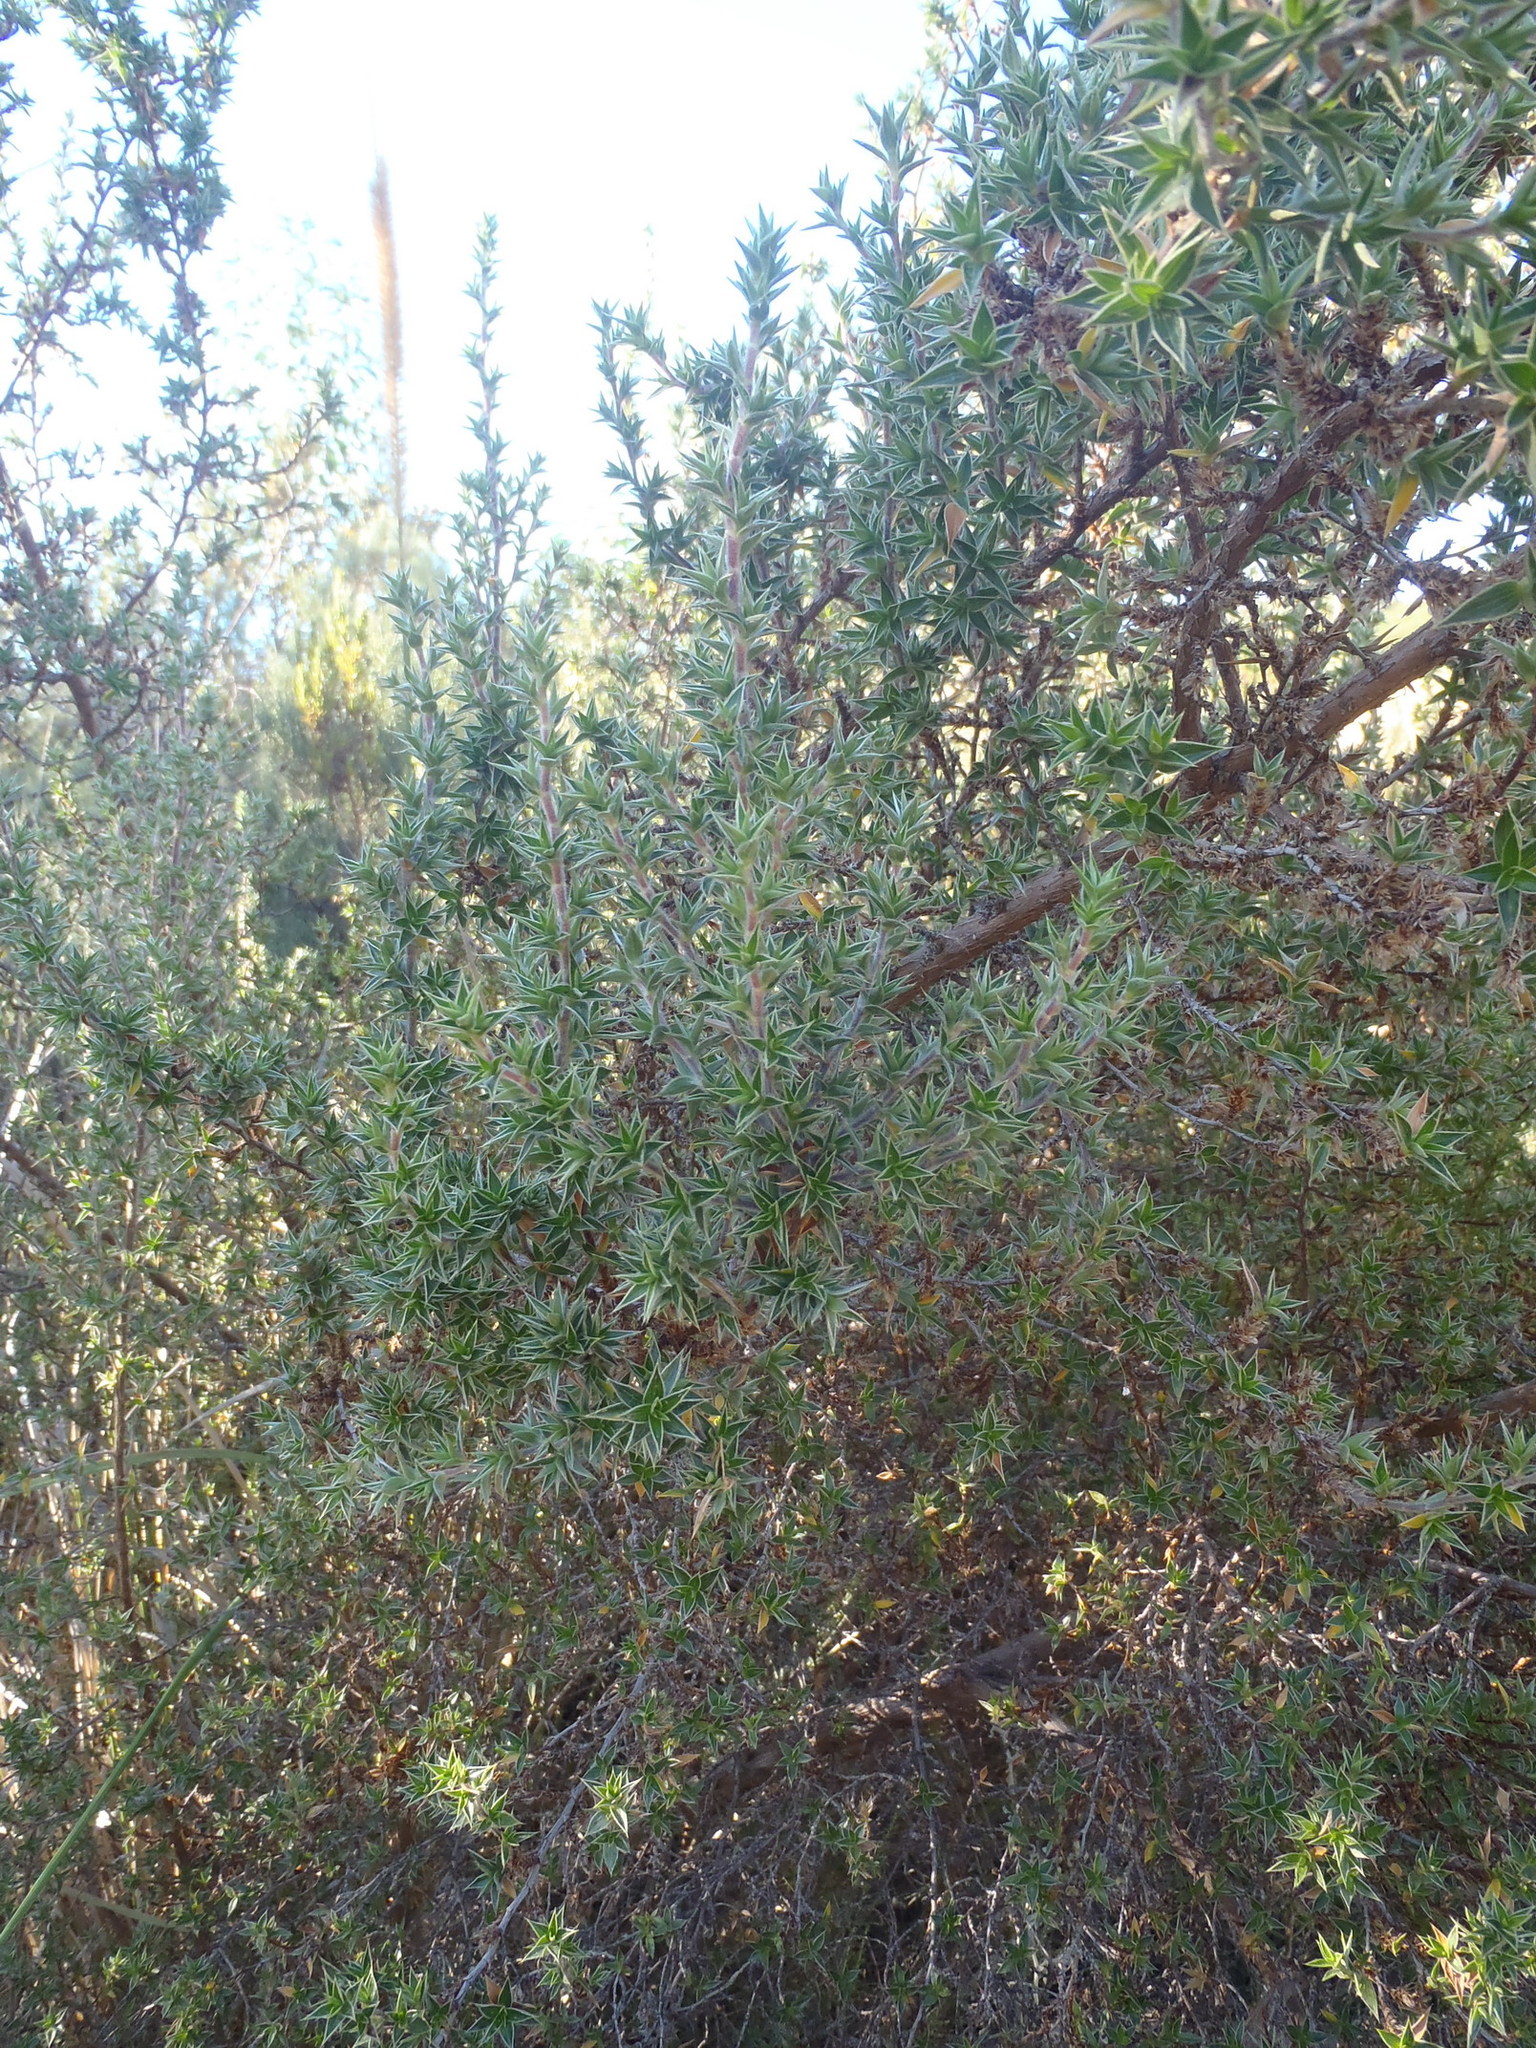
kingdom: Plantae
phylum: Tracheophyta
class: Magnoliopsida
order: Rosales
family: Rosaceae
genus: Cliffortia
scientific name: Cliffortia ruscifolia
